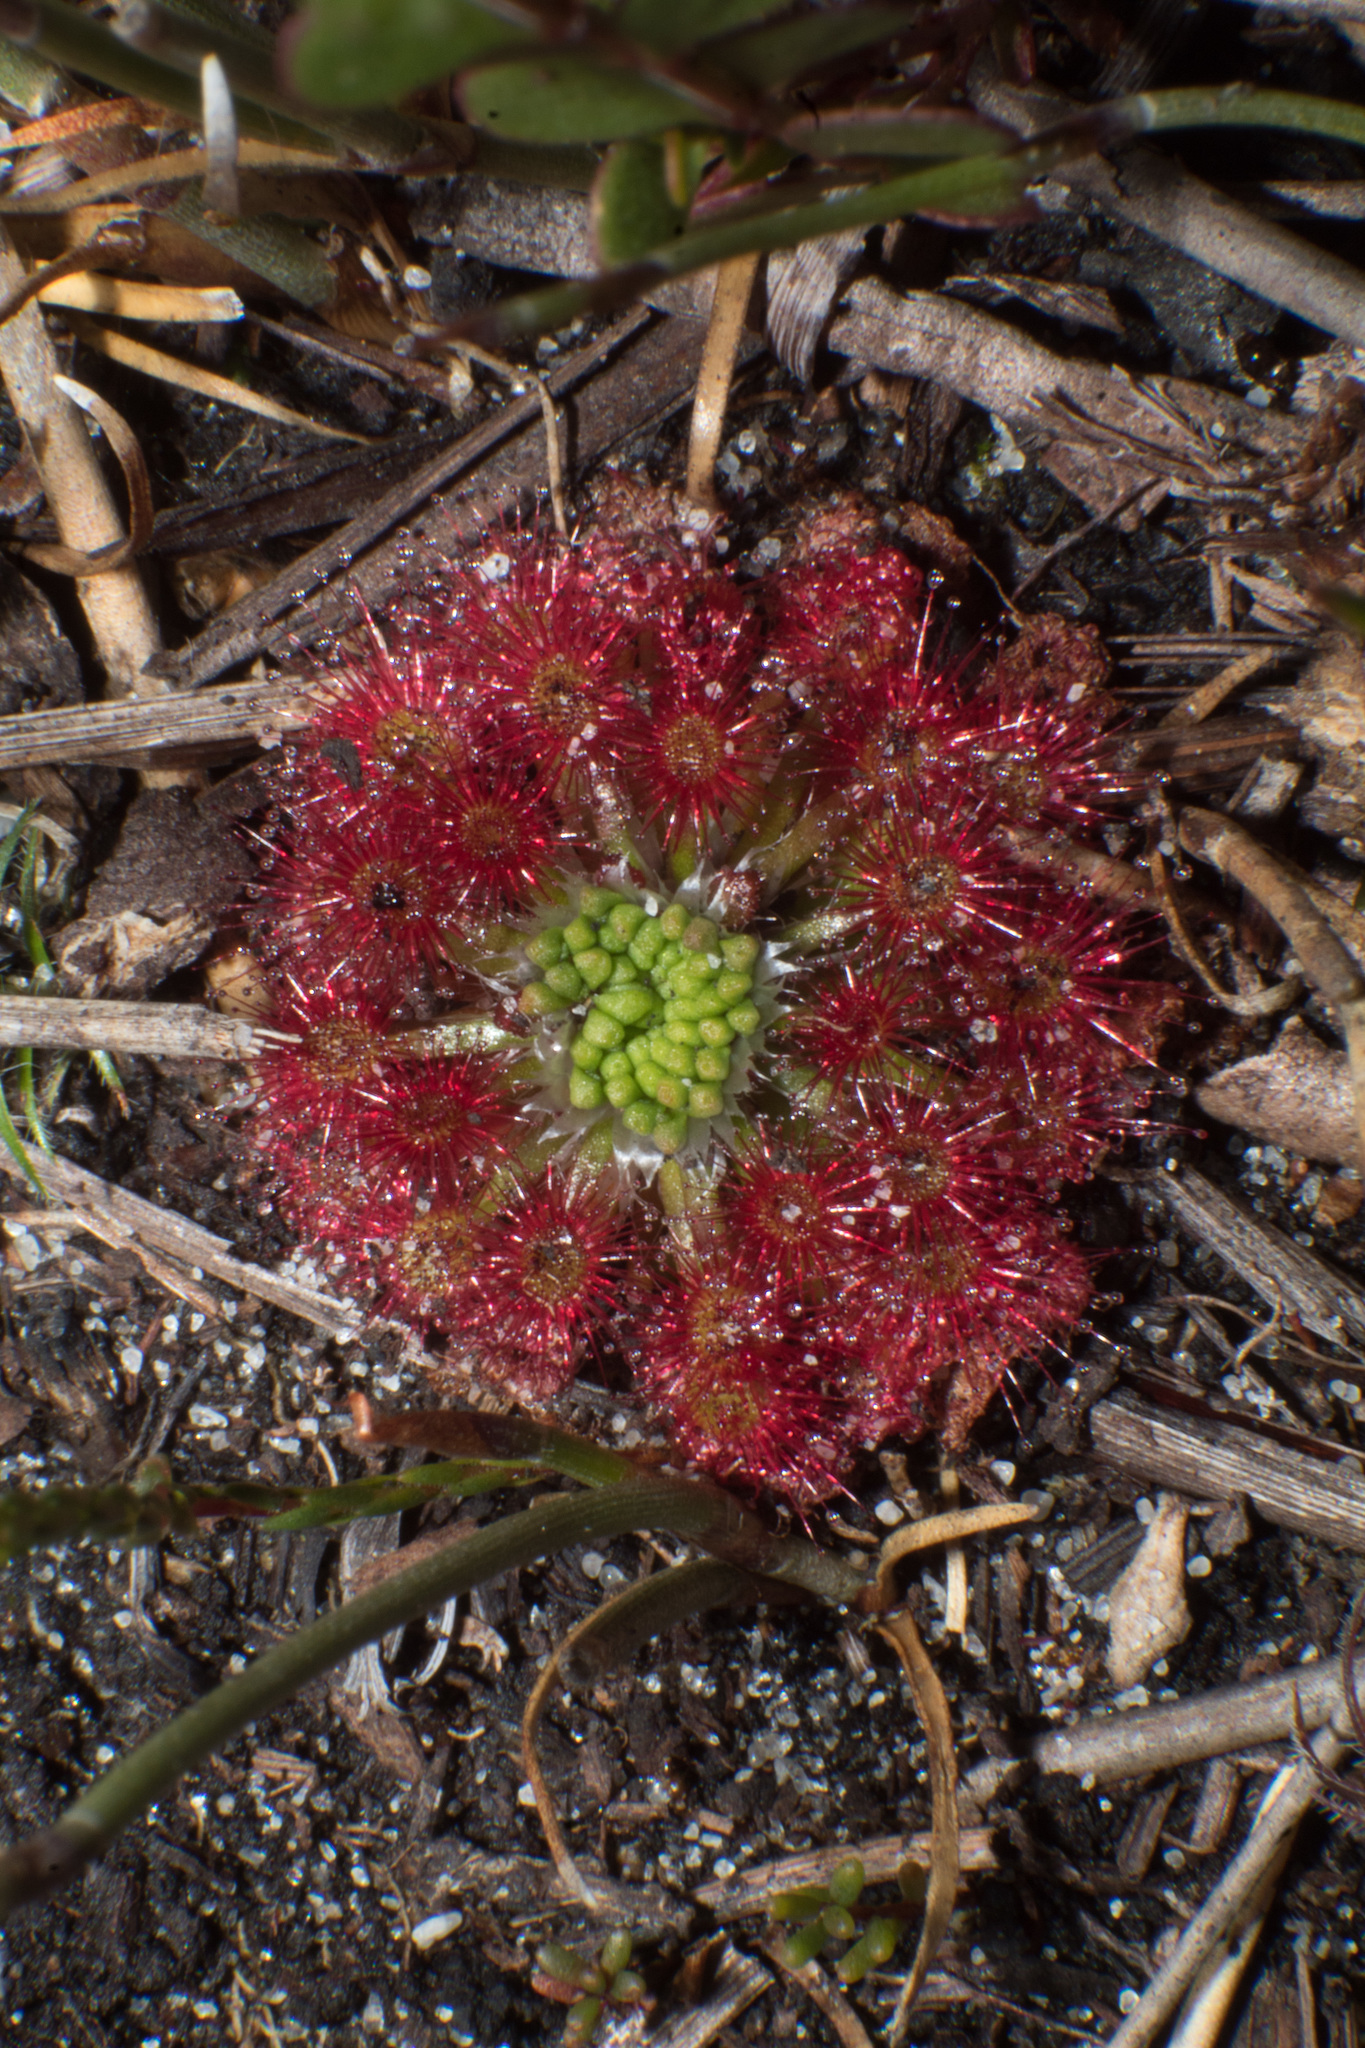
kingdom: Plantae
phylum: Tracheophyta
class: Magnoliopsida
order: Caryophyllales
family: Droseraceae
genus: Drosera
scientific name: Drosera paleacea
